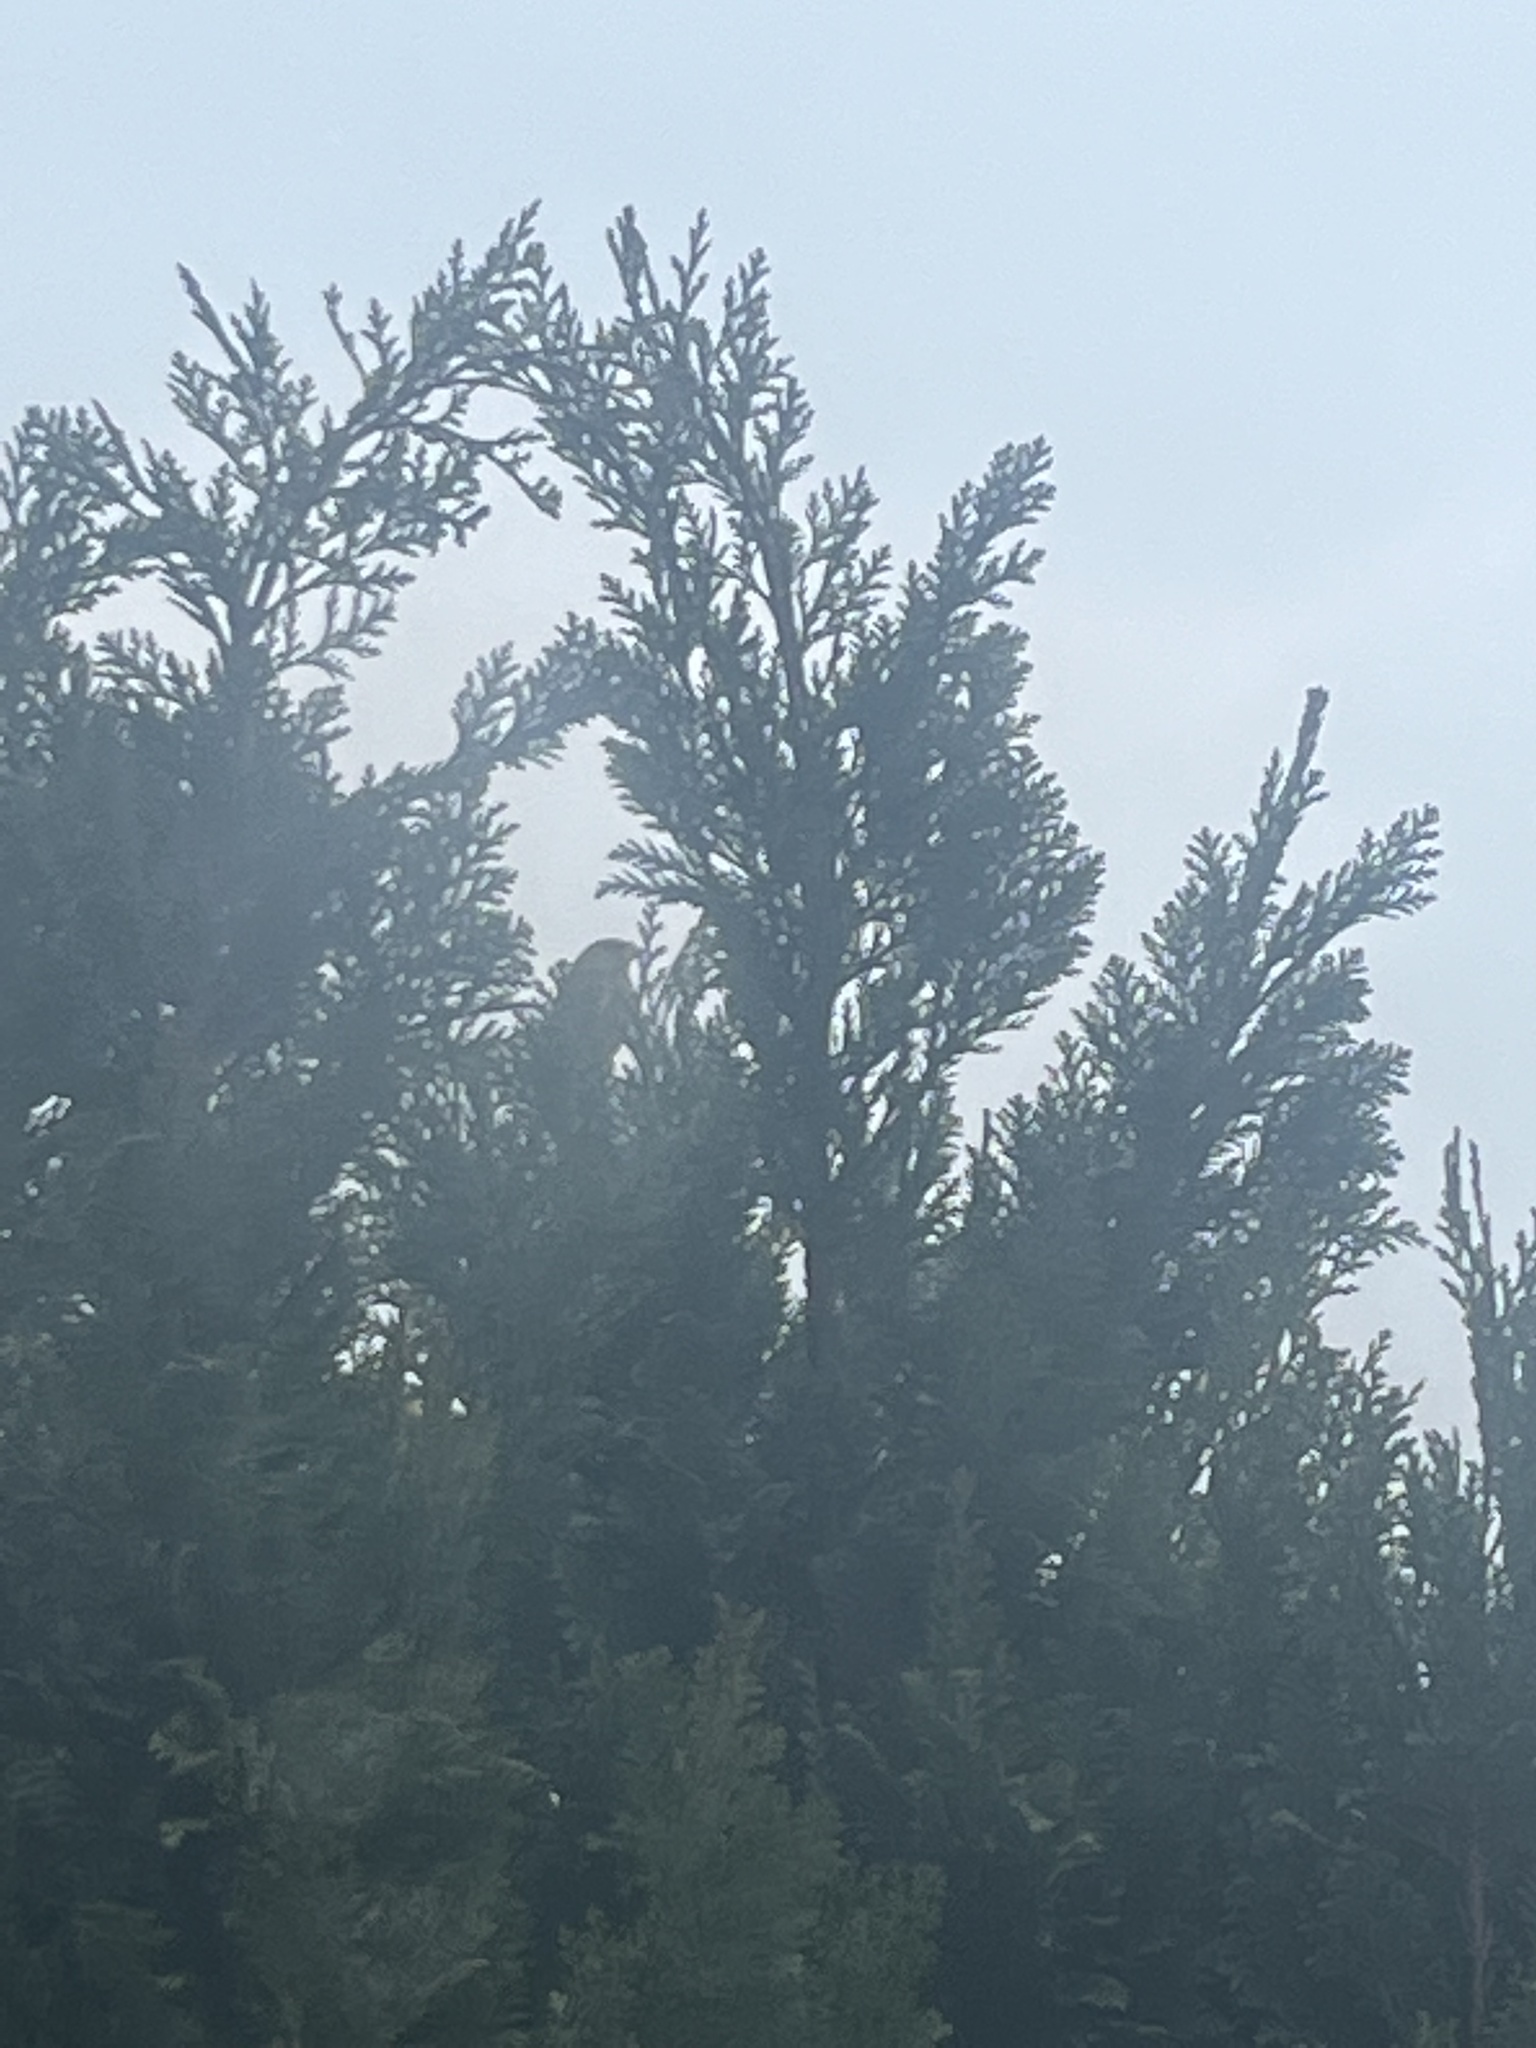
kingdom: Plantae
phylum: Tracheophyta
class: Liliopsida
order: Poales
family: Poaceae
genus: Chloris
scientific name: Chloris chloris
